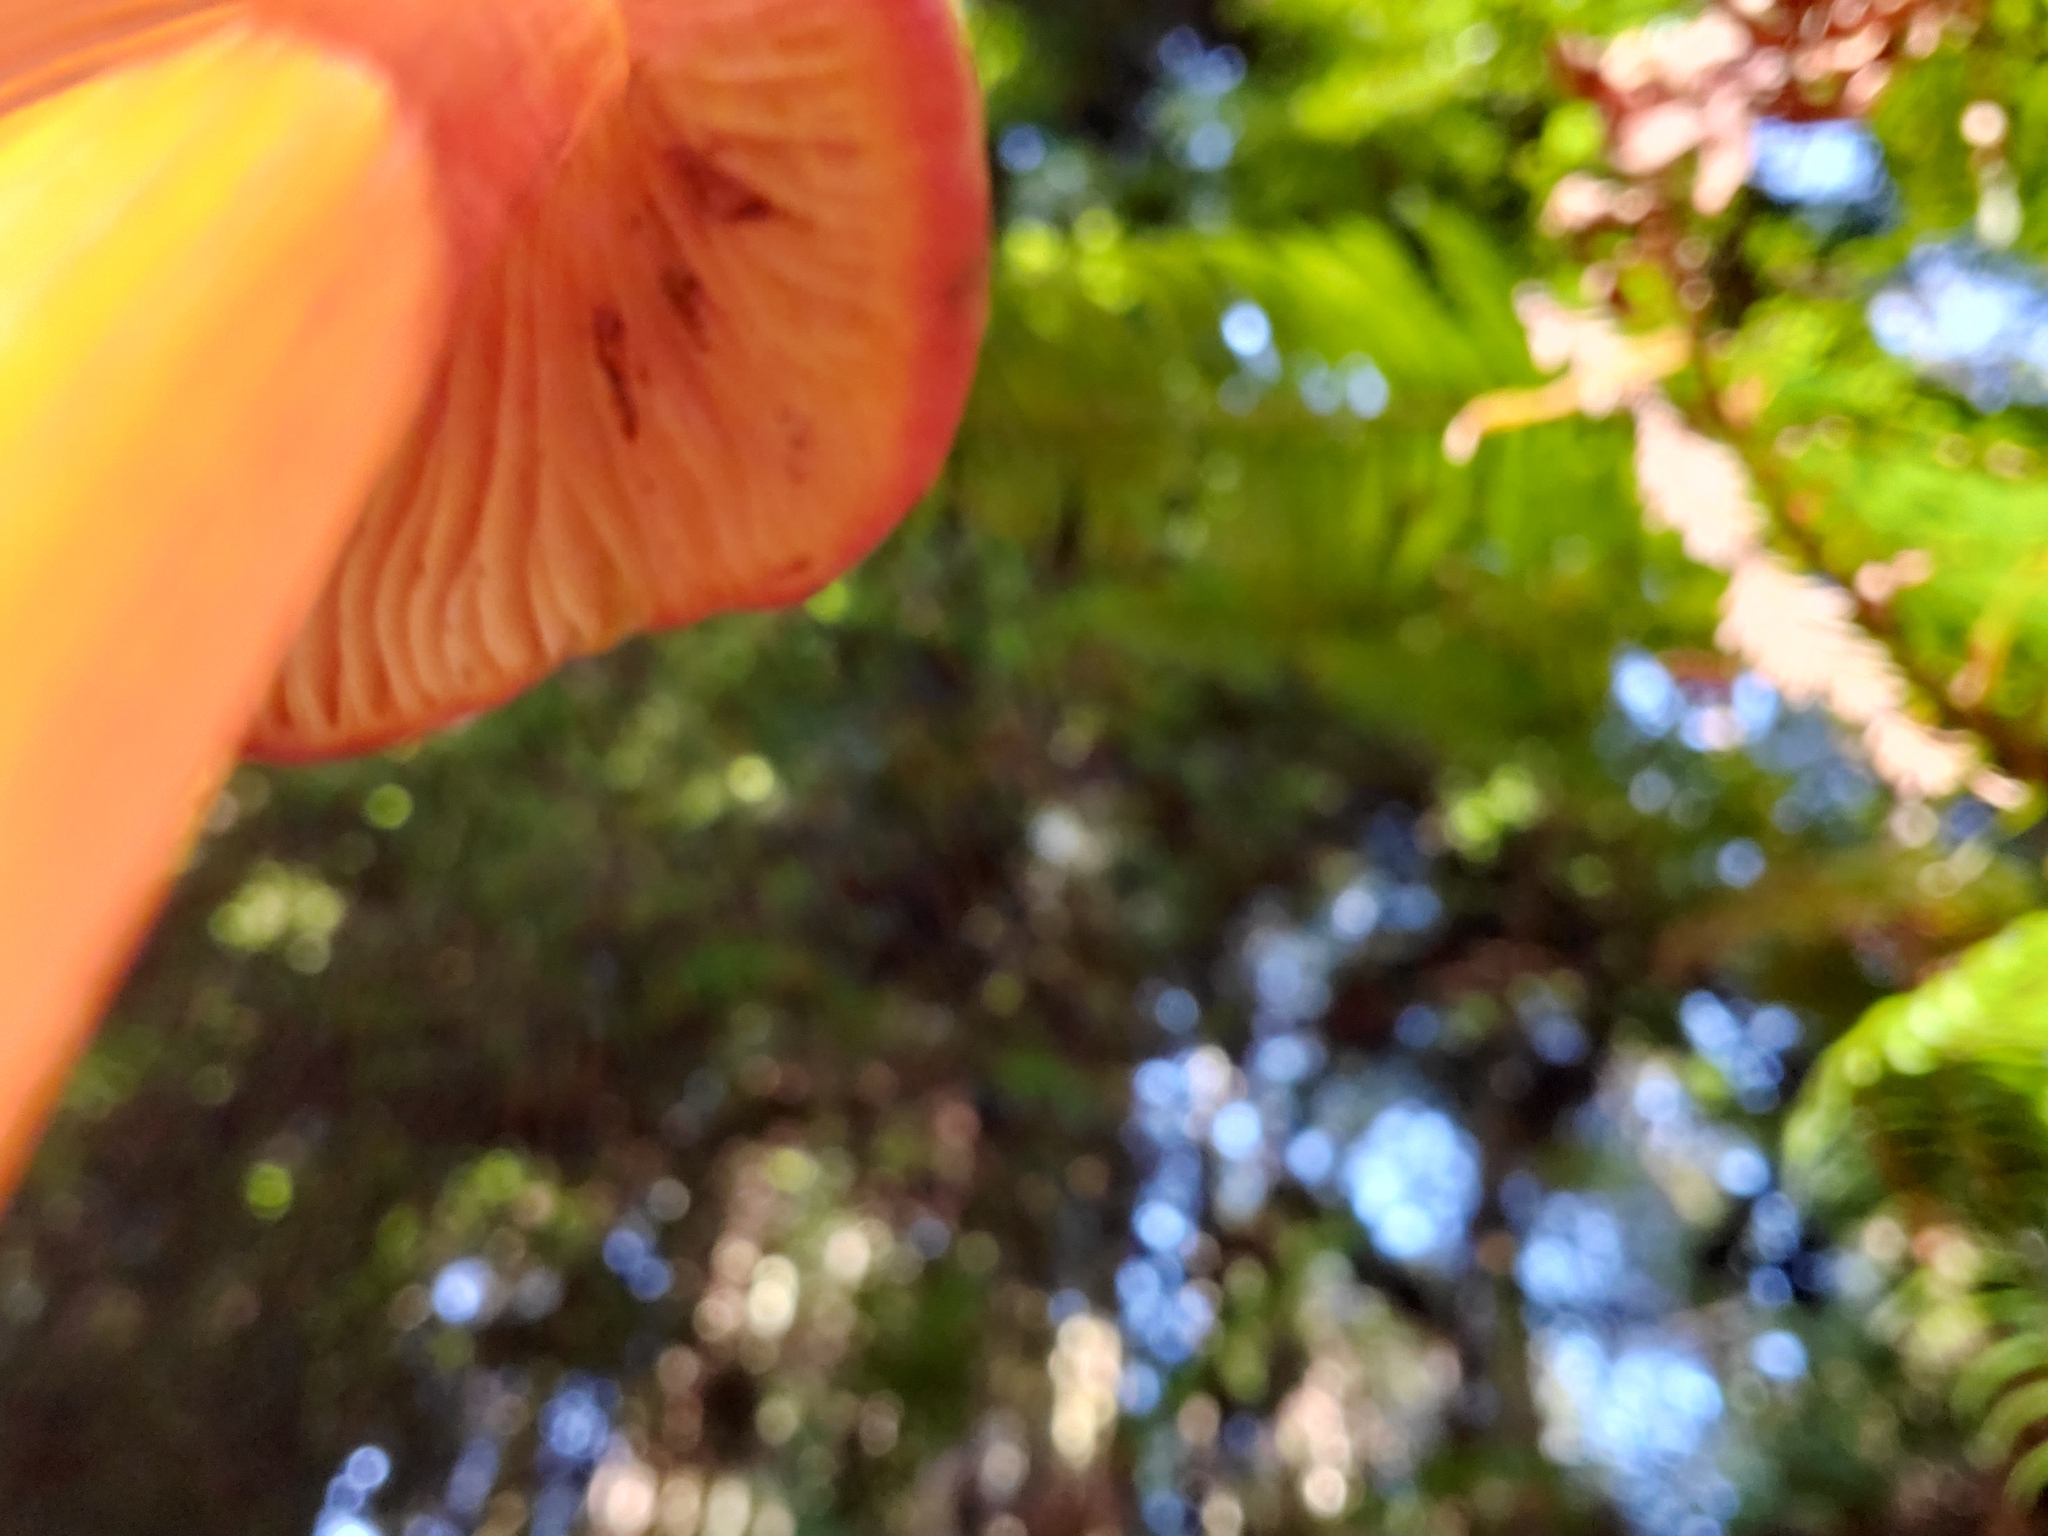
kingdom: Fungi
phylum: Basidiomycota
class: Agaricomycetes
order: Agaricales
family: Hygrophoraceae
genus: Hygrocybe
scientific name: Hygrocybe singeri
